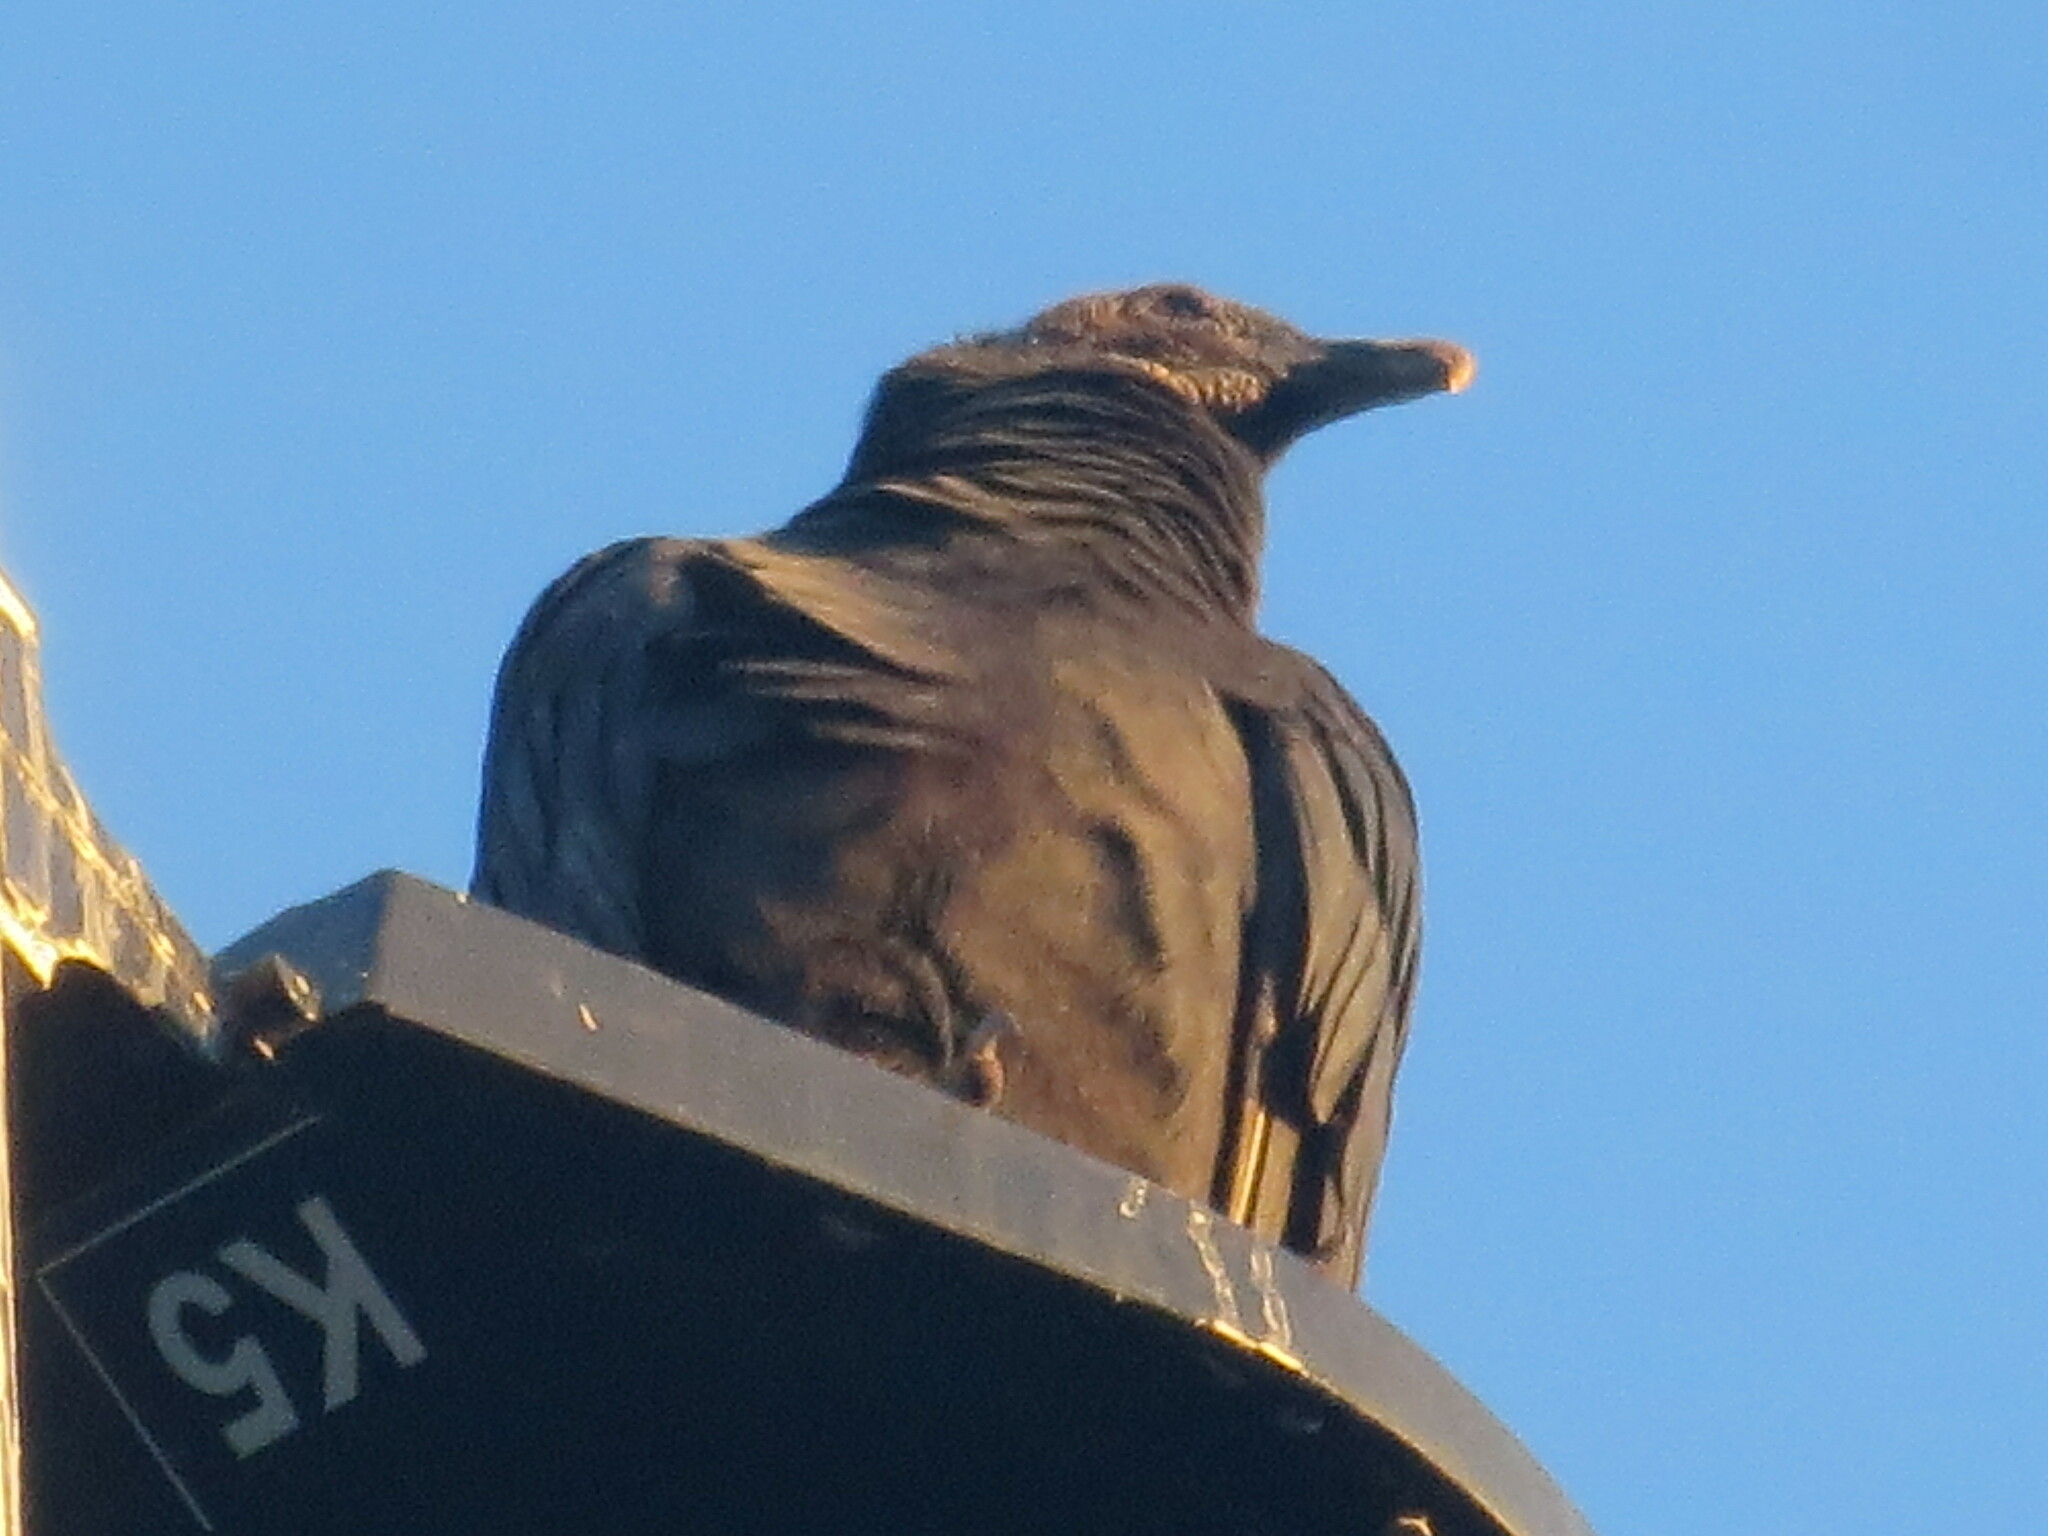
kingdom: Animalia
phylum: Chordata
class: Aves
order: Accipitriformes
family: Cathartidae
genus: Coragyps
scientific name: Coragyps atratus
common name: Black vulture
